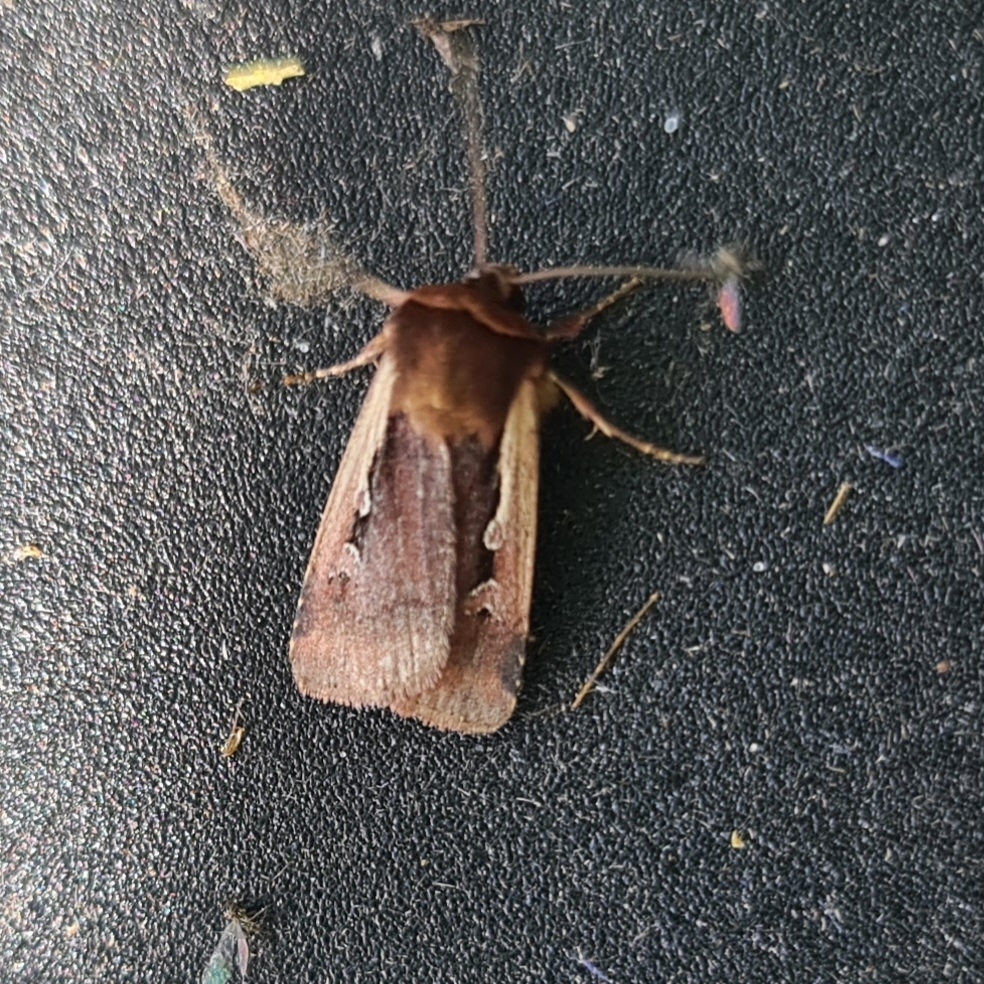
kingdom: Animalia
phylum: Arthropoda
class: Insecta
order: Lepidoptera
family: Noctuidae
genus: Ochropleura
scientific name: Ochropleura plecta
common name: Flame shoulder
